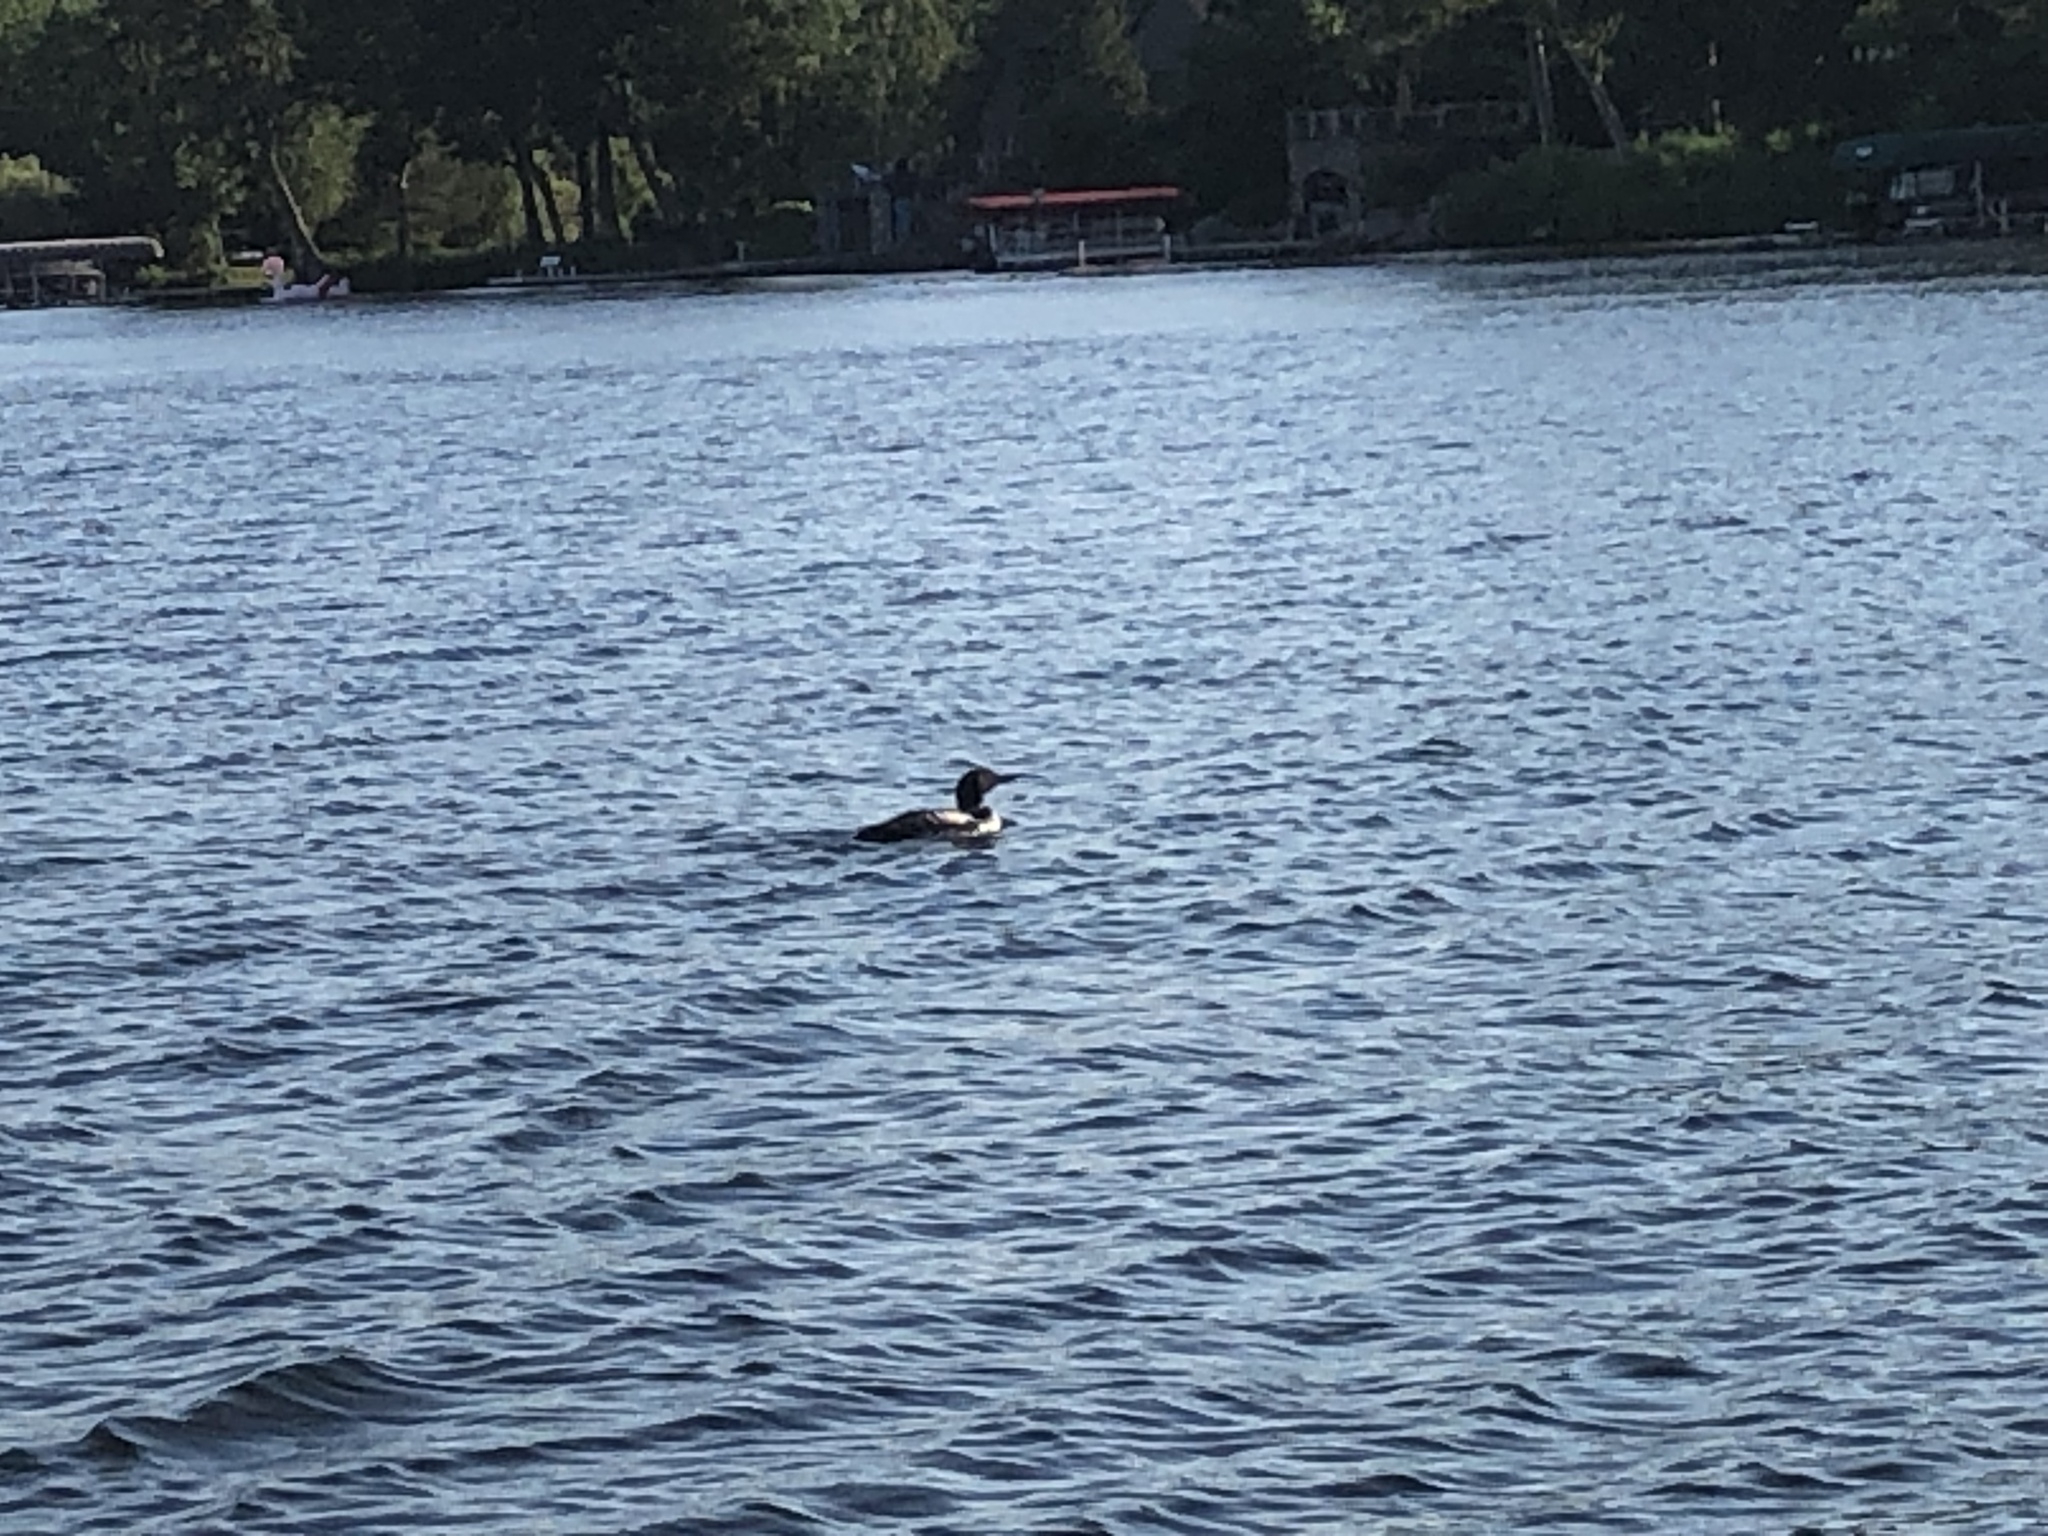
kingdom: Animalia
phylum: Chordata
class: Aves
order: Gaviiformes
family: Gaviidae
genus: Gavia
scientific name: Gavia immer
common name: Common loon
